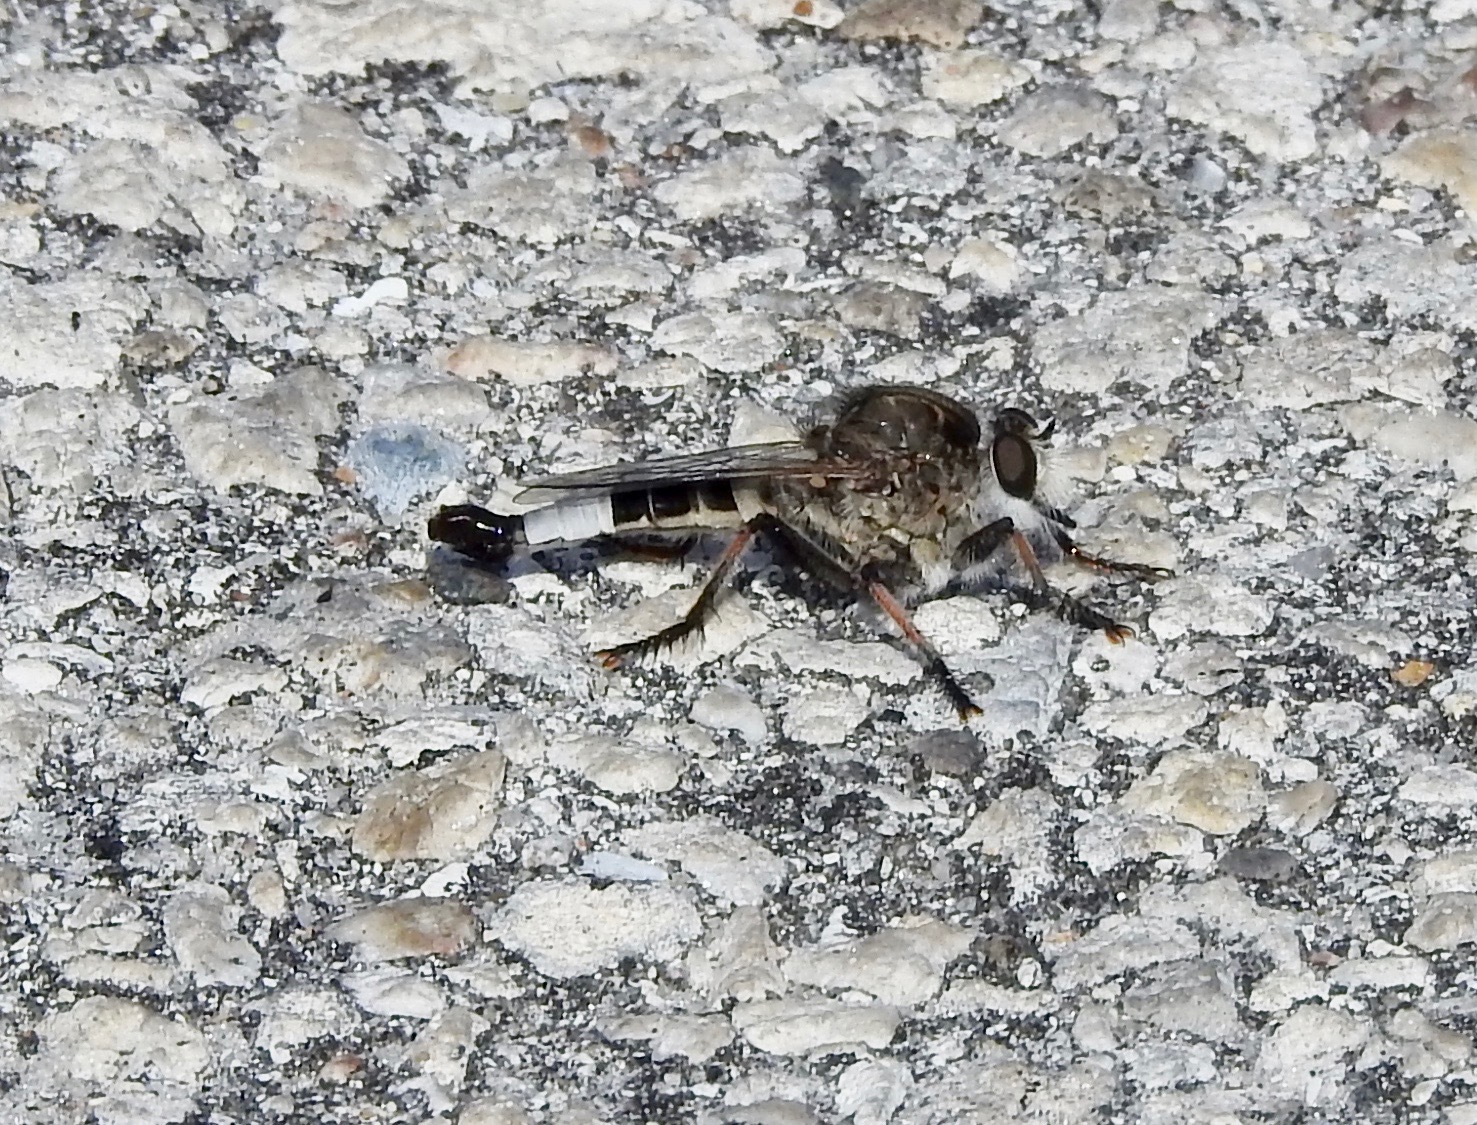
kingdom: Animalia
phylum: Arthropoda
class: Insecta
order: Diptera
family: Asilidae
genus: Efferia
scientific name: Efferia albibarbis
